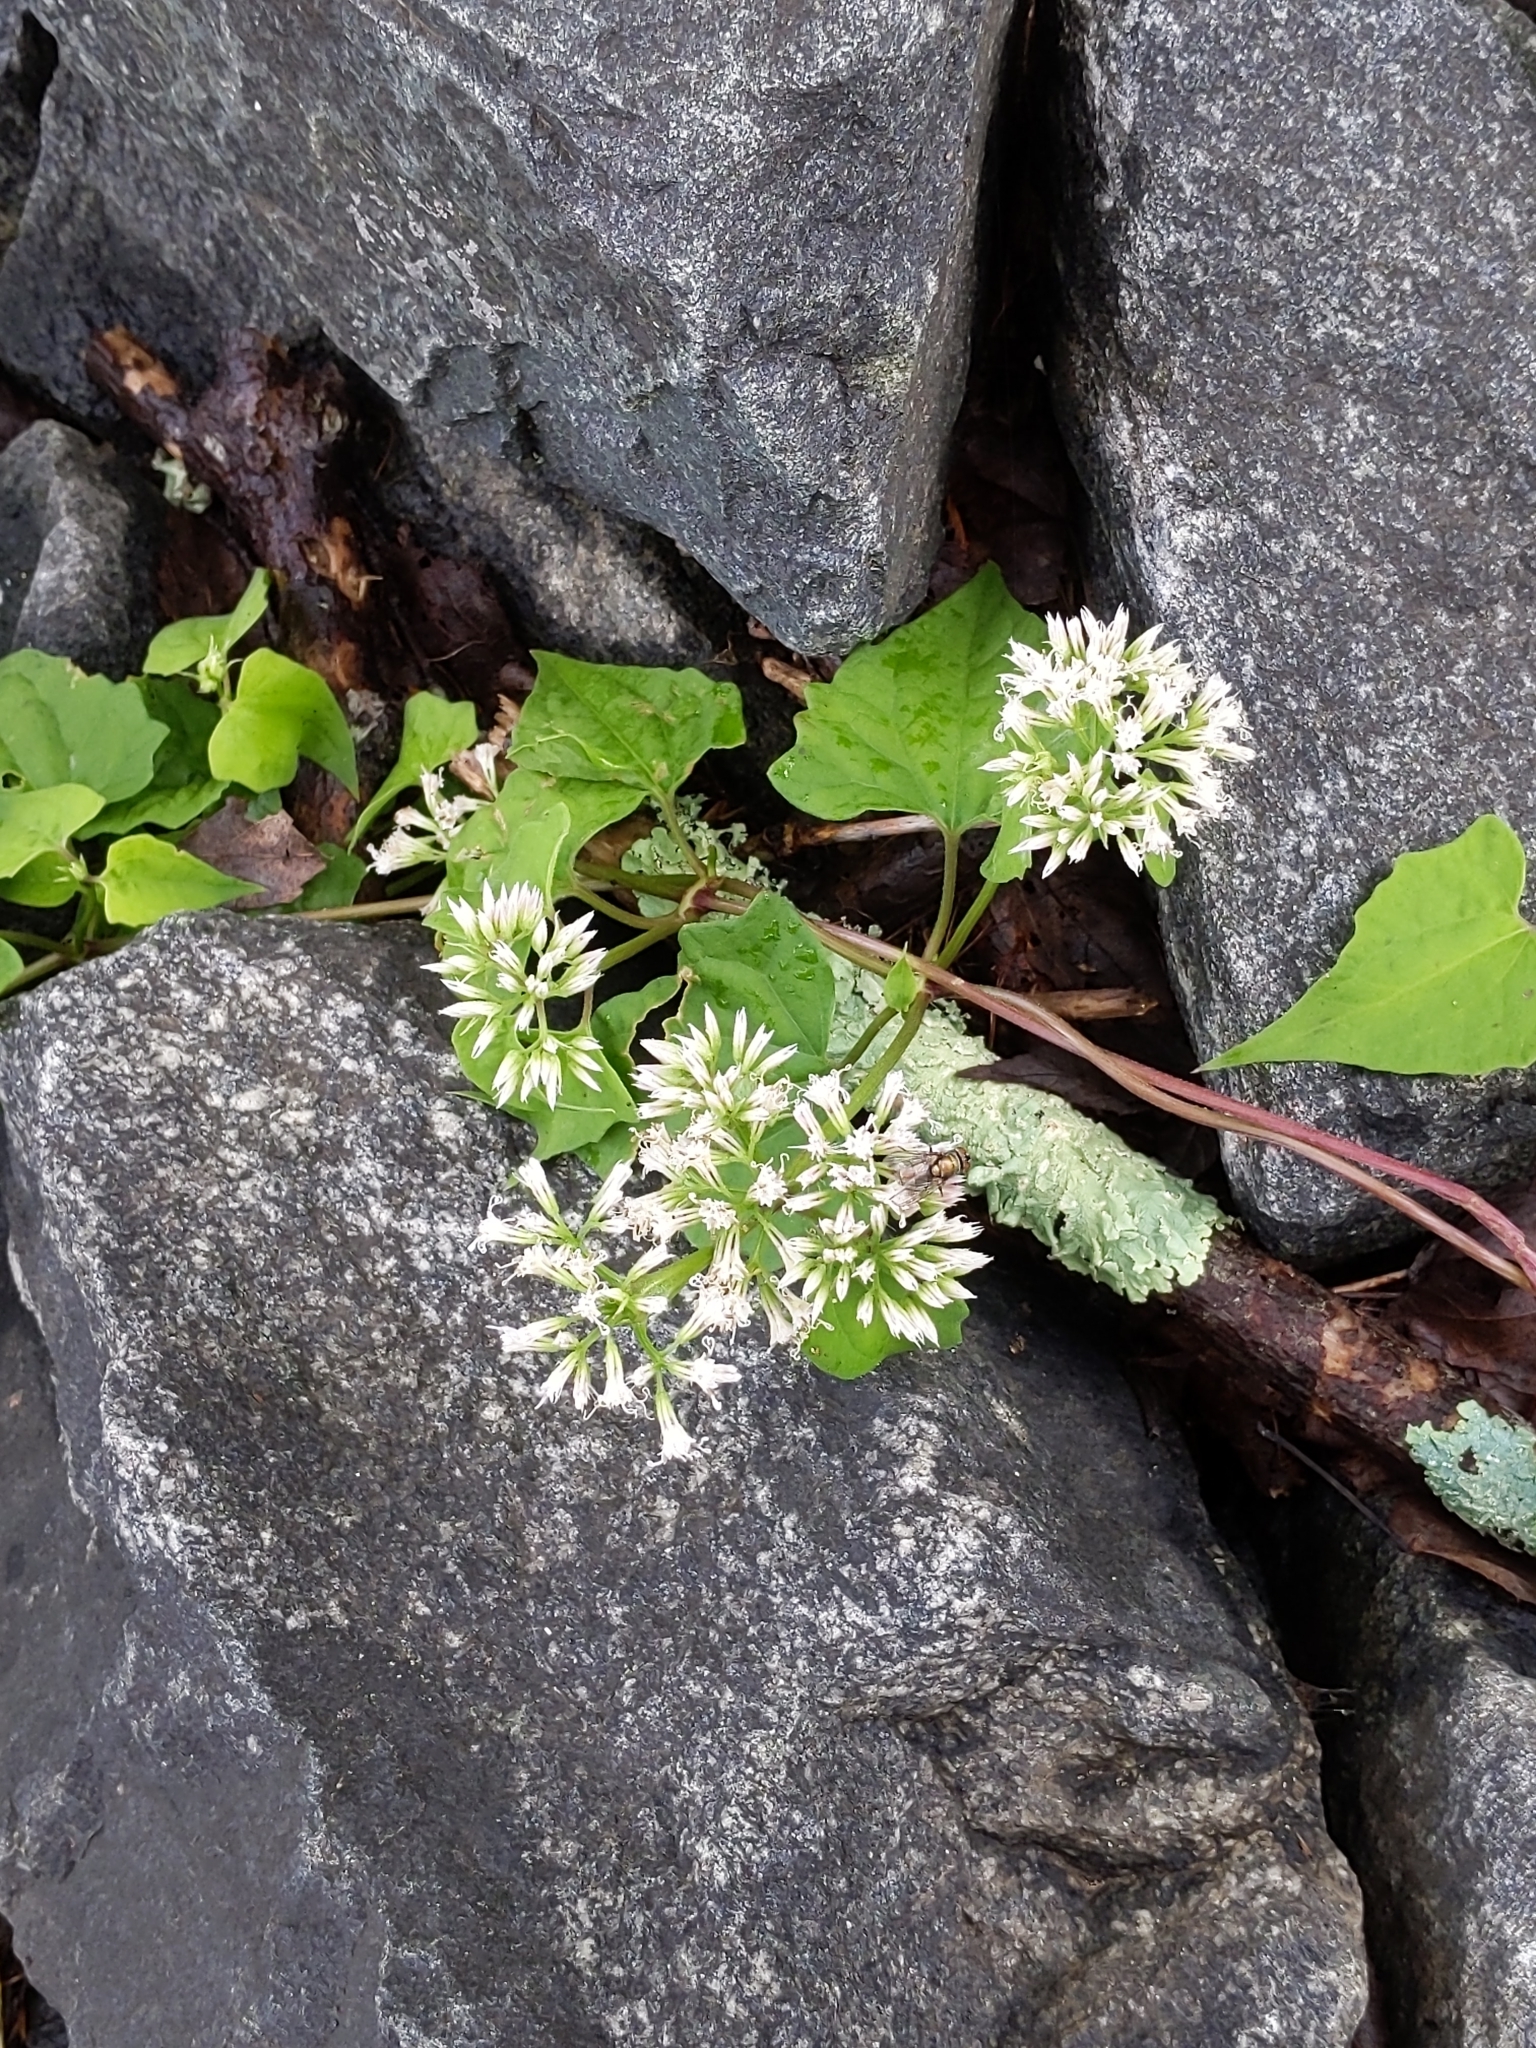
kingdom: Plantae
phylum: Tracheophyta
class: Magnoliopsida
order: Asterales
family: Asteraceae
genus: Mikania
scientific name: Mikania scandens
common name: Climbing hempvine
